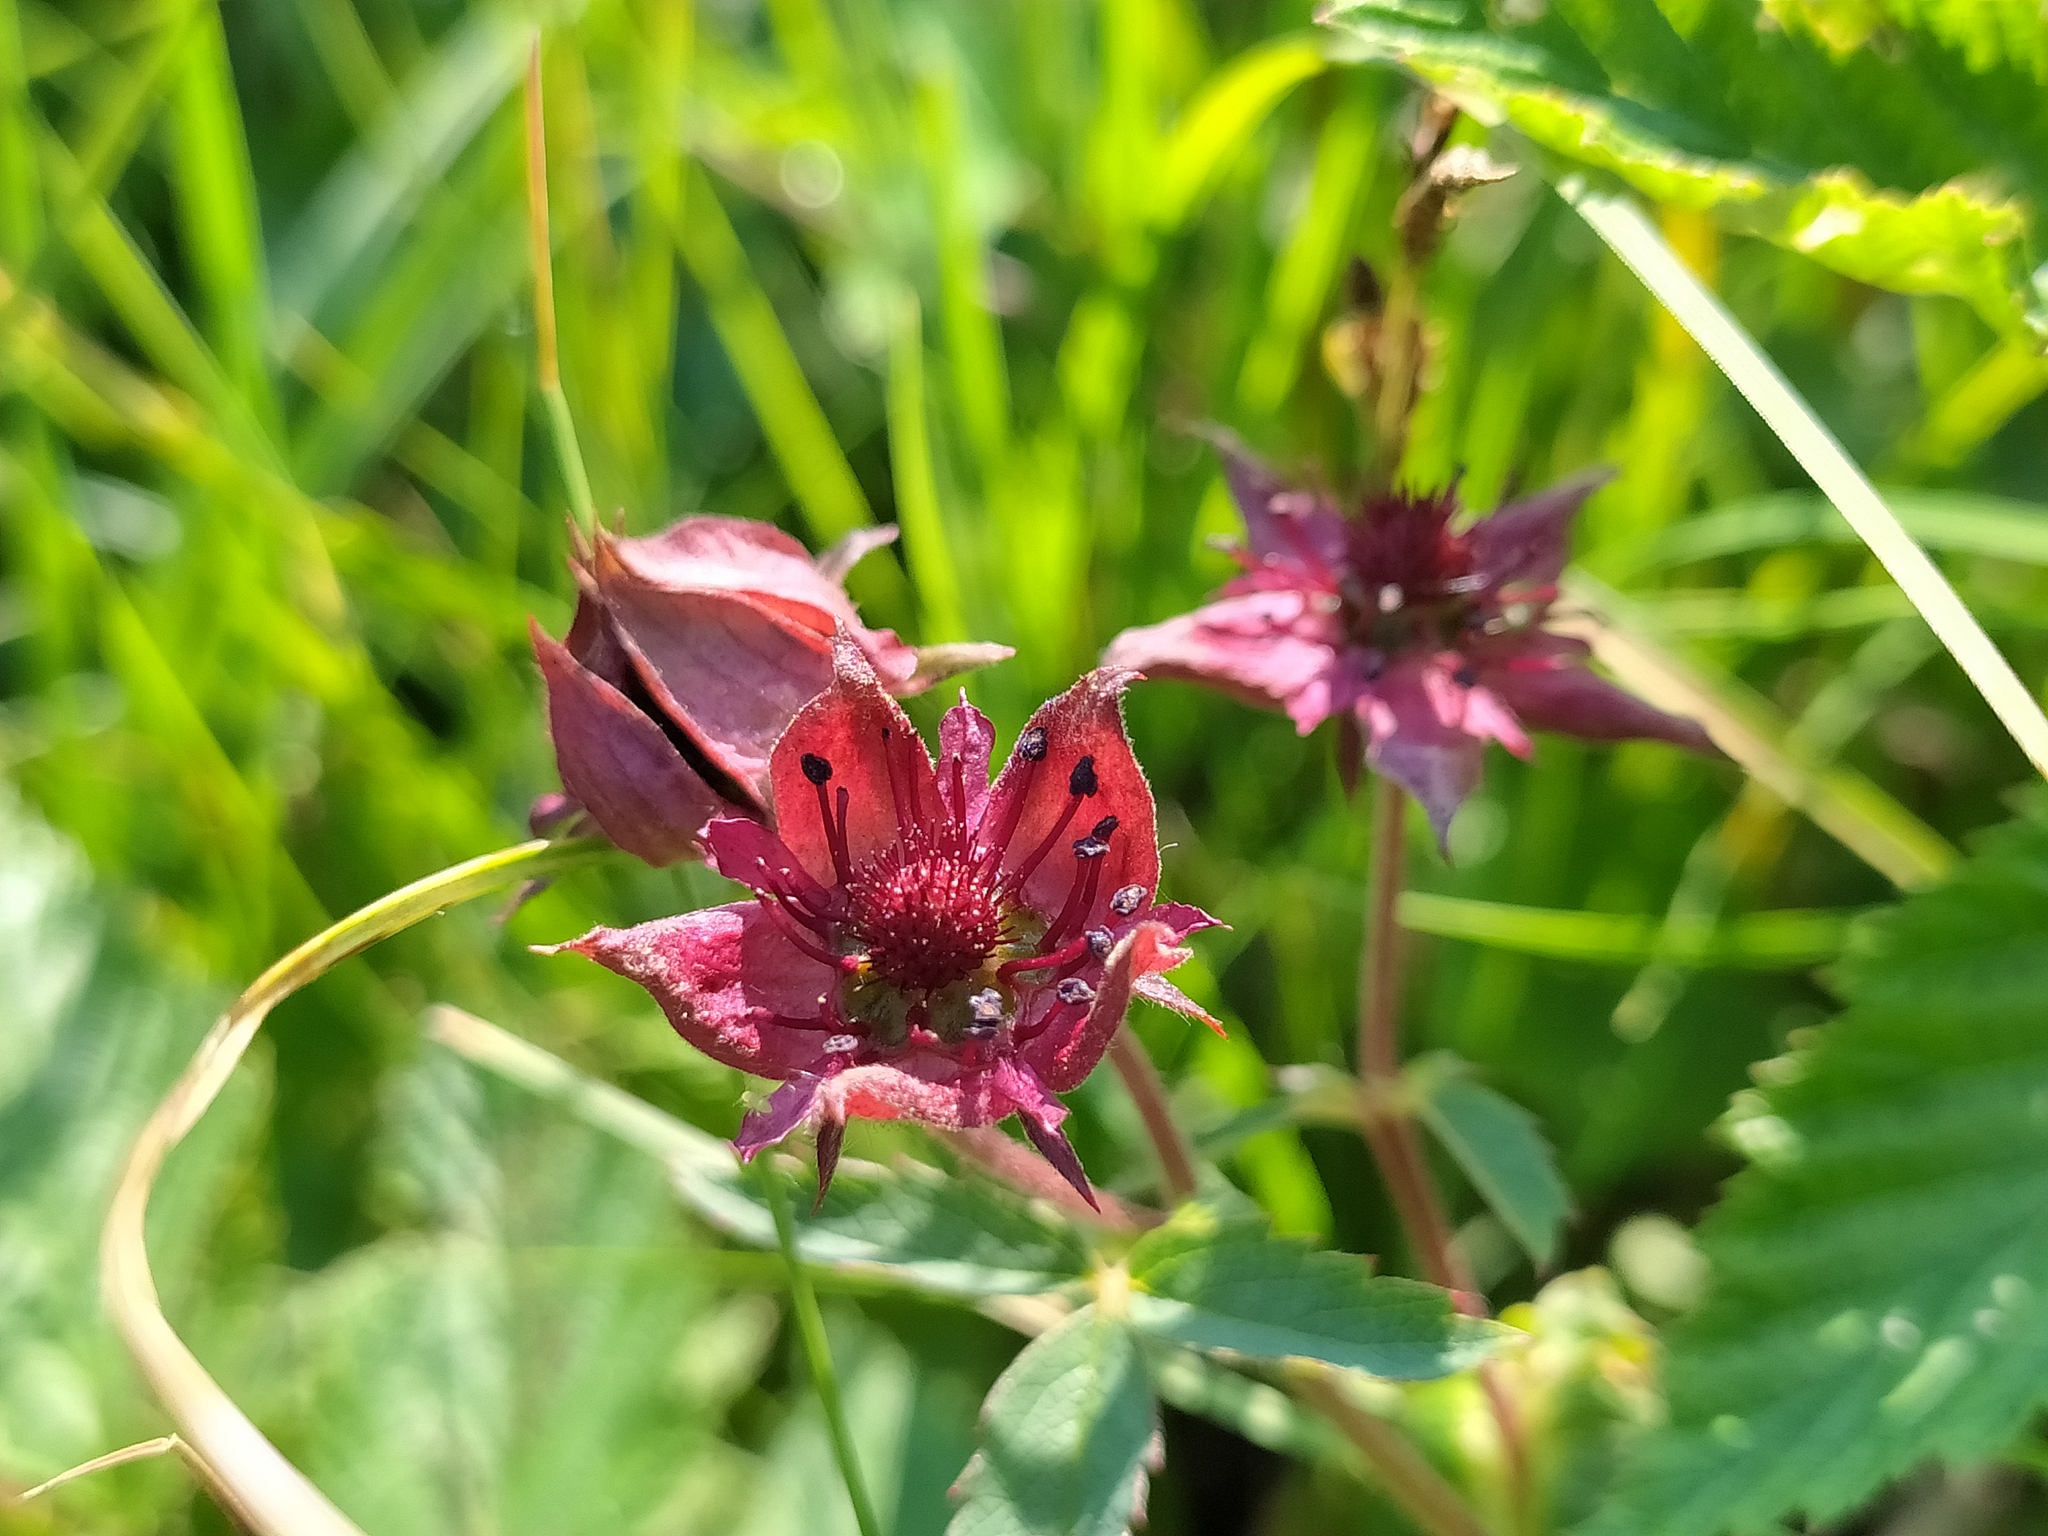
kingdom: Plantae
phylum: Tracheophyta
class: Magnoliopsida
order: Rosales
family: Rosaceae
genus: Comarum
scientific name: Comarum palustre
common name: Marsh cinquefoil
